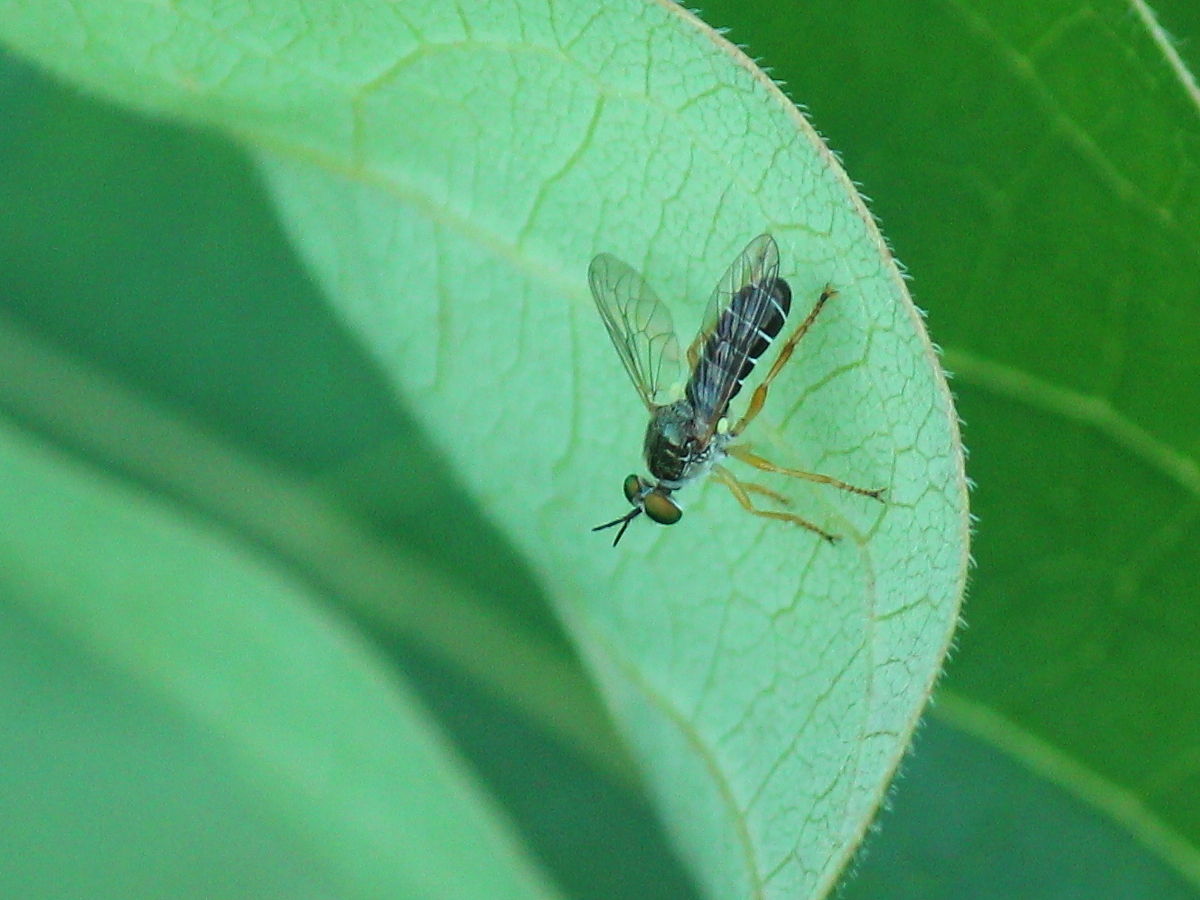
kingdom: Animalia
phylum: Arthropoda
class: Insecta
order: Diptera
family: Asilidae
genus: Atomosia
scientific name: Atomosia rufipes
